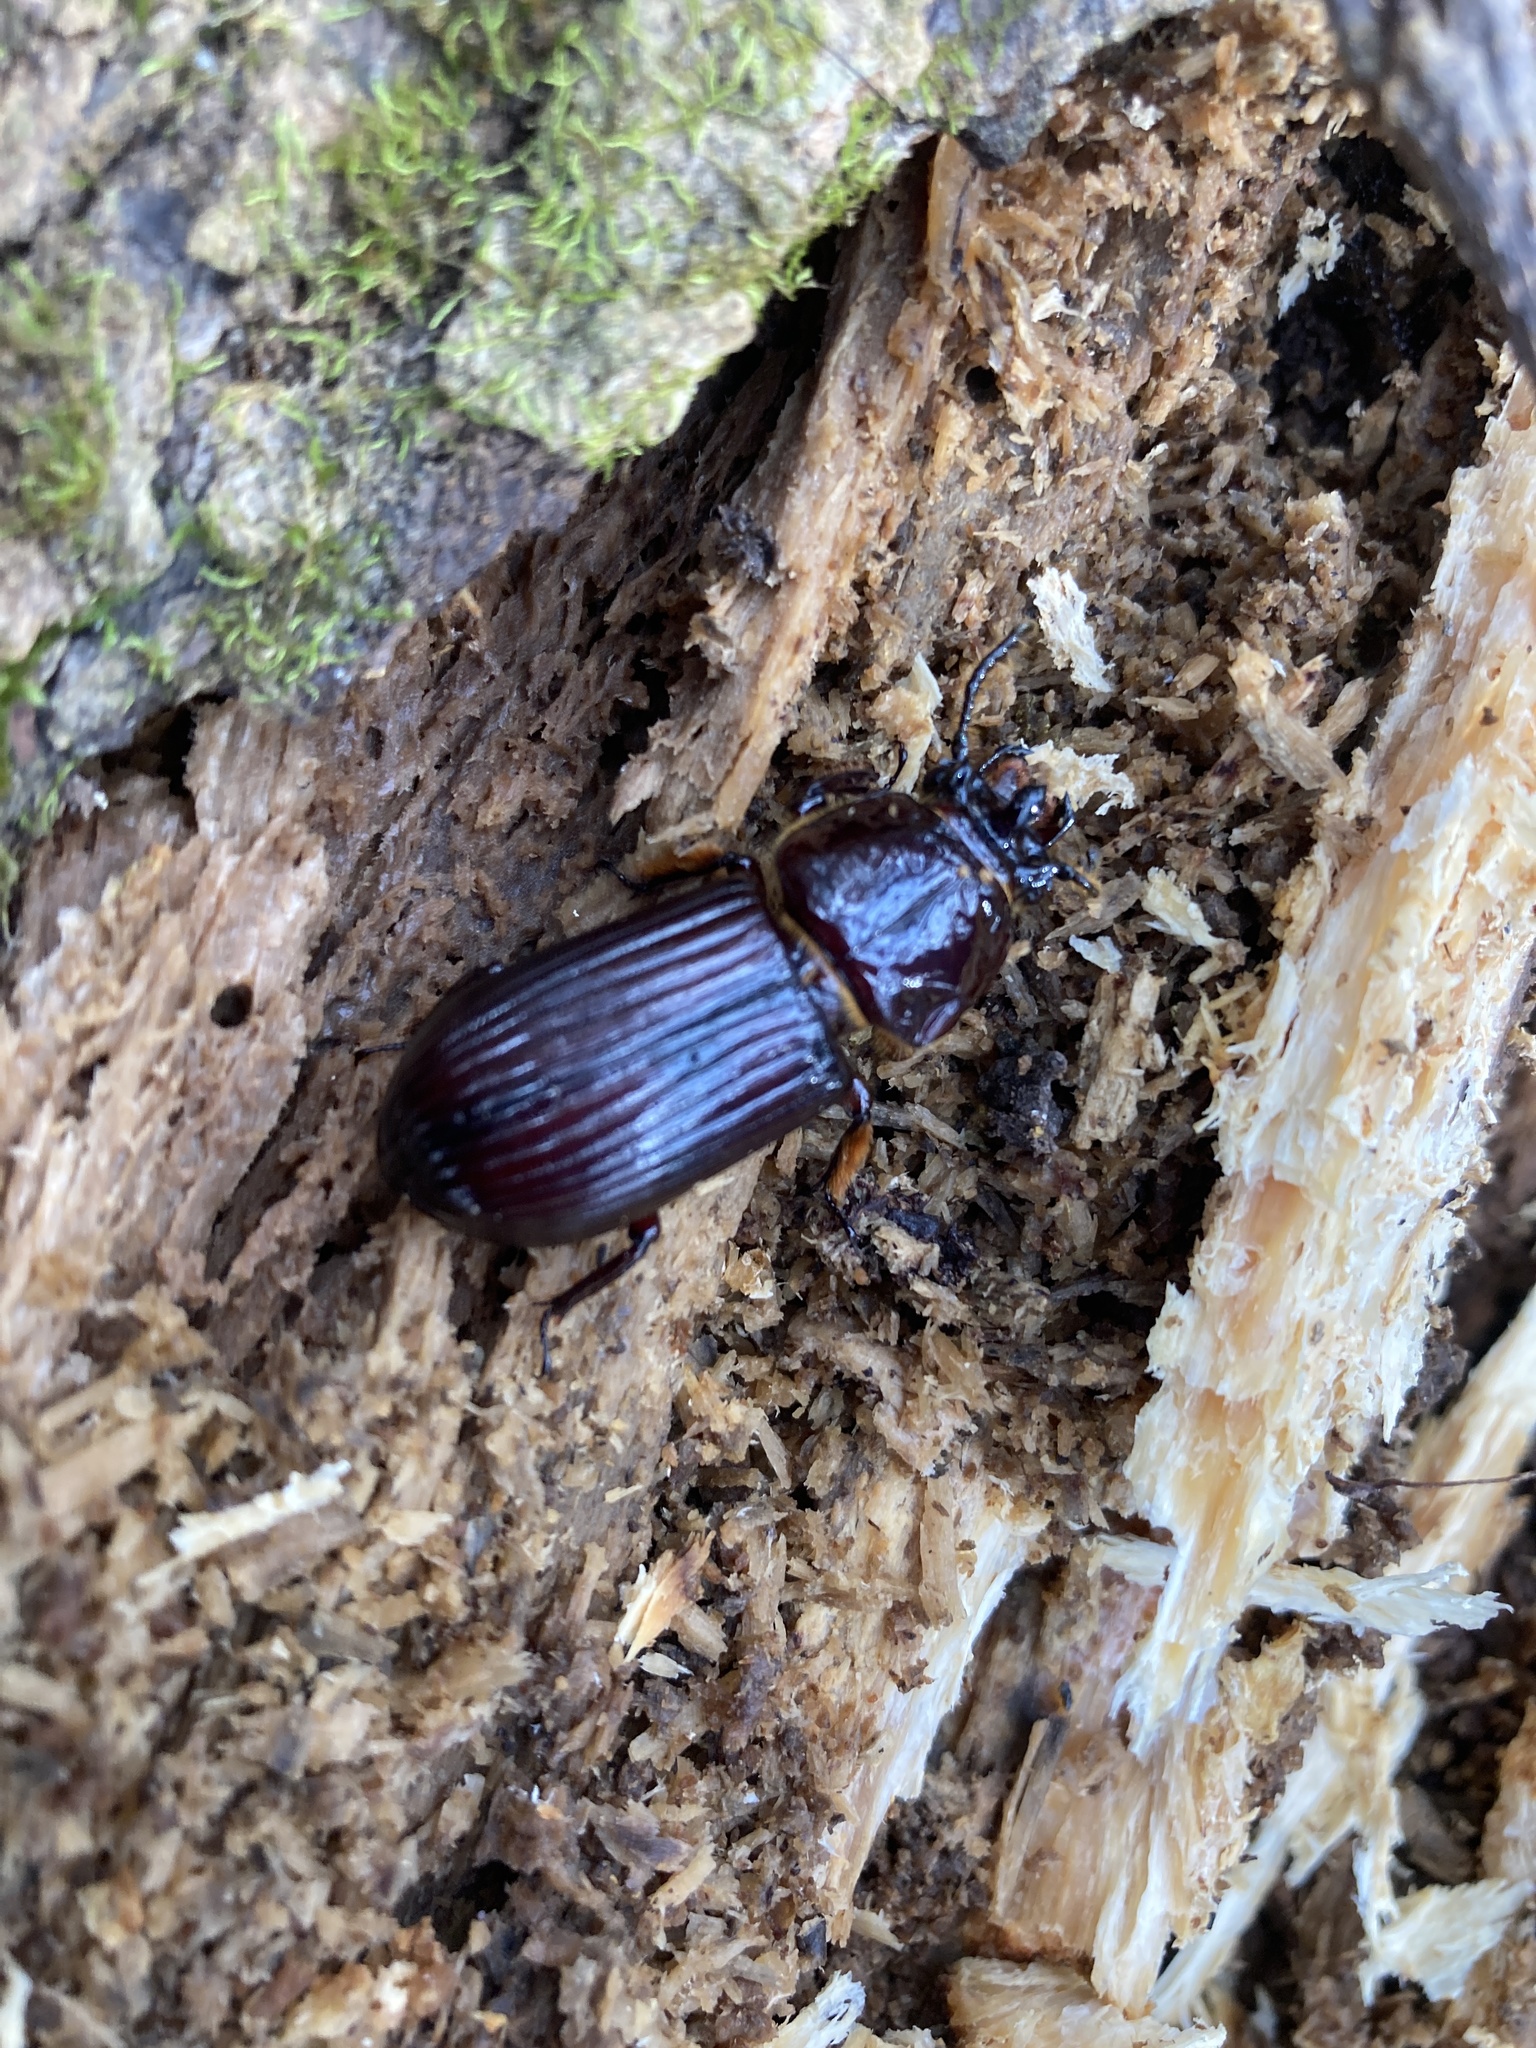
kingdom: Animalia
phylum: Arthropoda
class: Insecta
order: Coleoptera
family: Passalidae
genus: Odontotaenius
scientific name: Odontotaenius disjunctus
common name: Patent leather beetle
